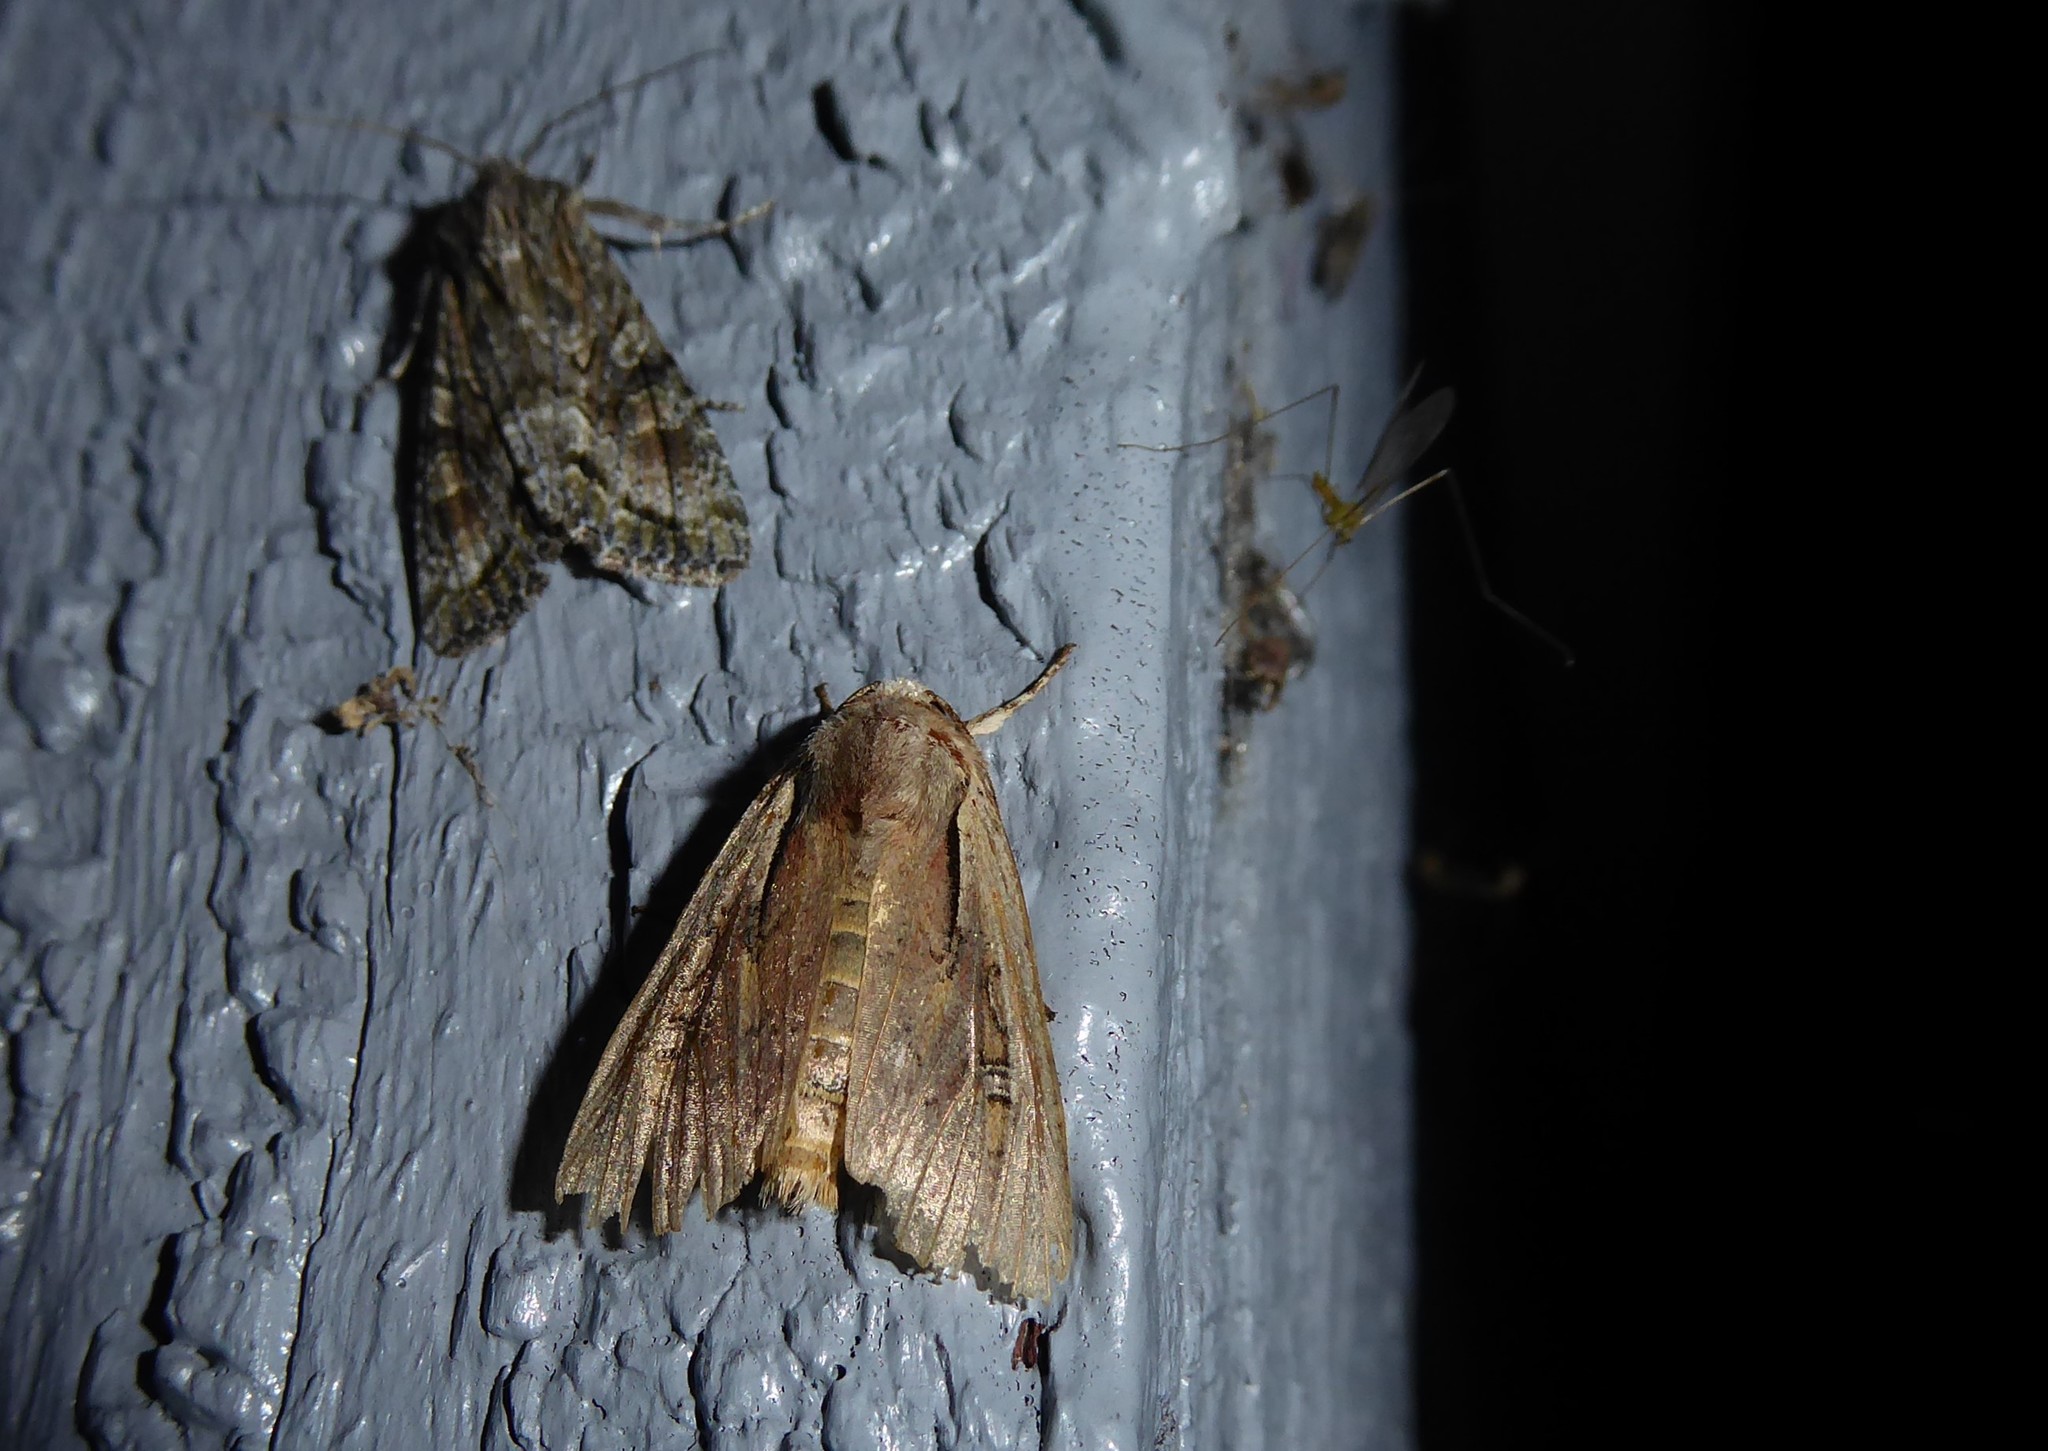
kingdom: Animalia
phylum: Arthropoda
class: Insecta
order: Lepidoptera
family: Noctuidae
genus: Ichneutica
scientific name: Ichneutica atristriga
